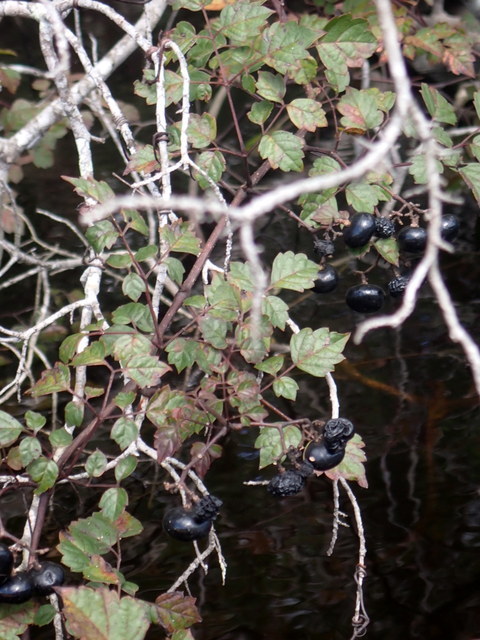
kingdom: Plantae
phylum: Tracheophyta
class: Magnoliopsida
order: Vitales
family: Vitaceae
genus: Nekemias
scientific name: Nekemias arborea
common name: Peppervine
